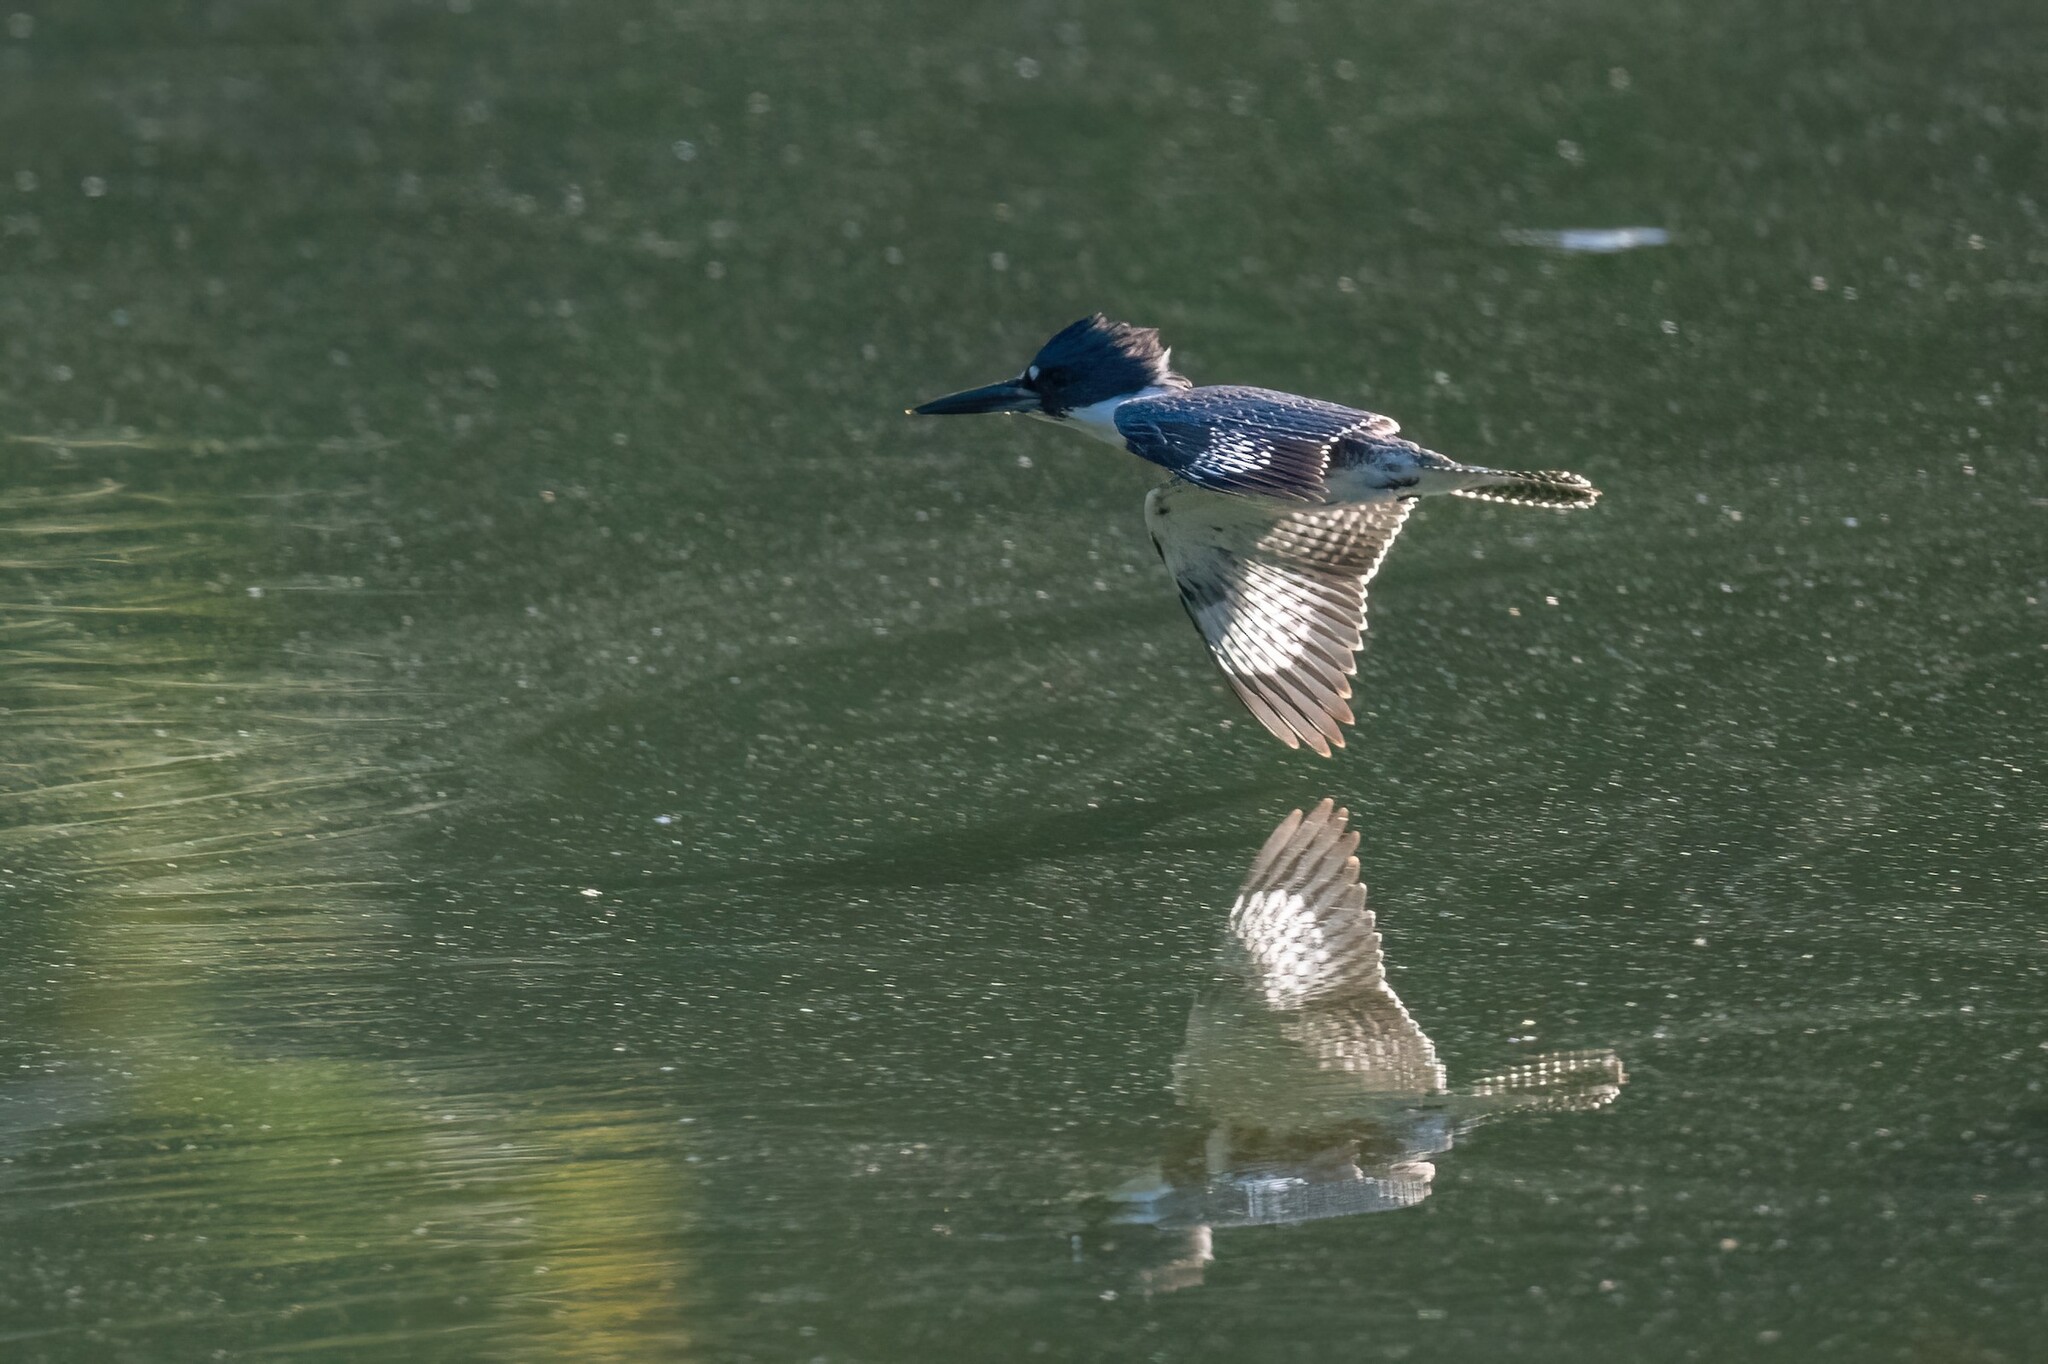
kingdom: Animalia
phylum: Chordata
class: Aves
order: Coraciiformes
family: Alcedinidae
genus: Megaceryle
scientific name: Megaceryle alcyon
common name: Belted kingfisher
